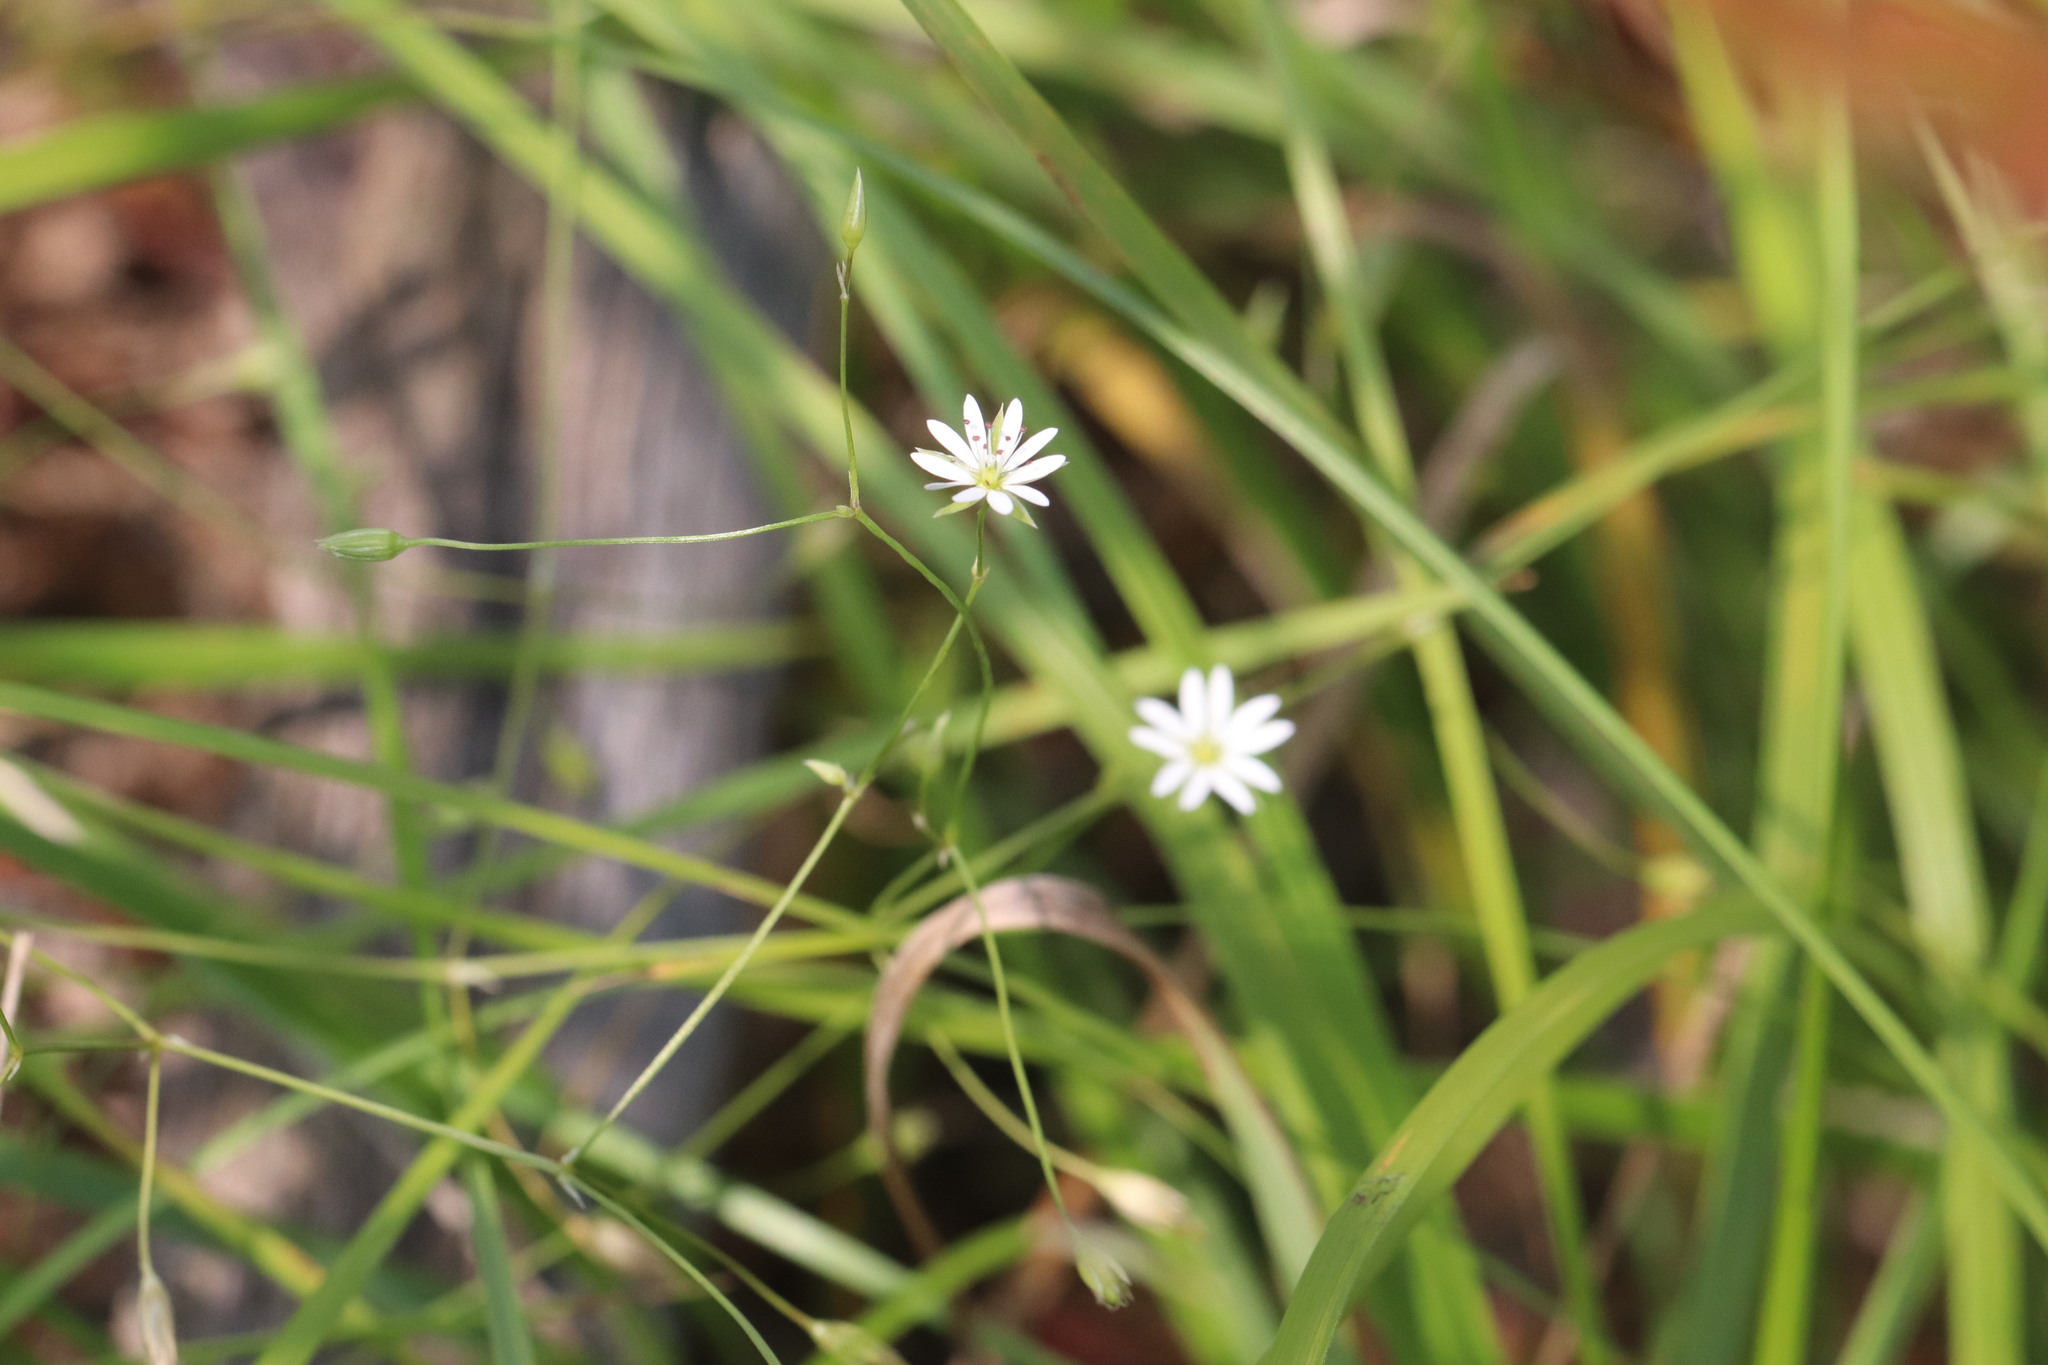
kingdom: Plantae
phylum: Tracheophyta
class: Magnoliopsida
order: Caryophyllales
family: Caryophyllaceae
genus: Stellaria
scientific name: Stellaria graminea
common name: Grass-like starwort
